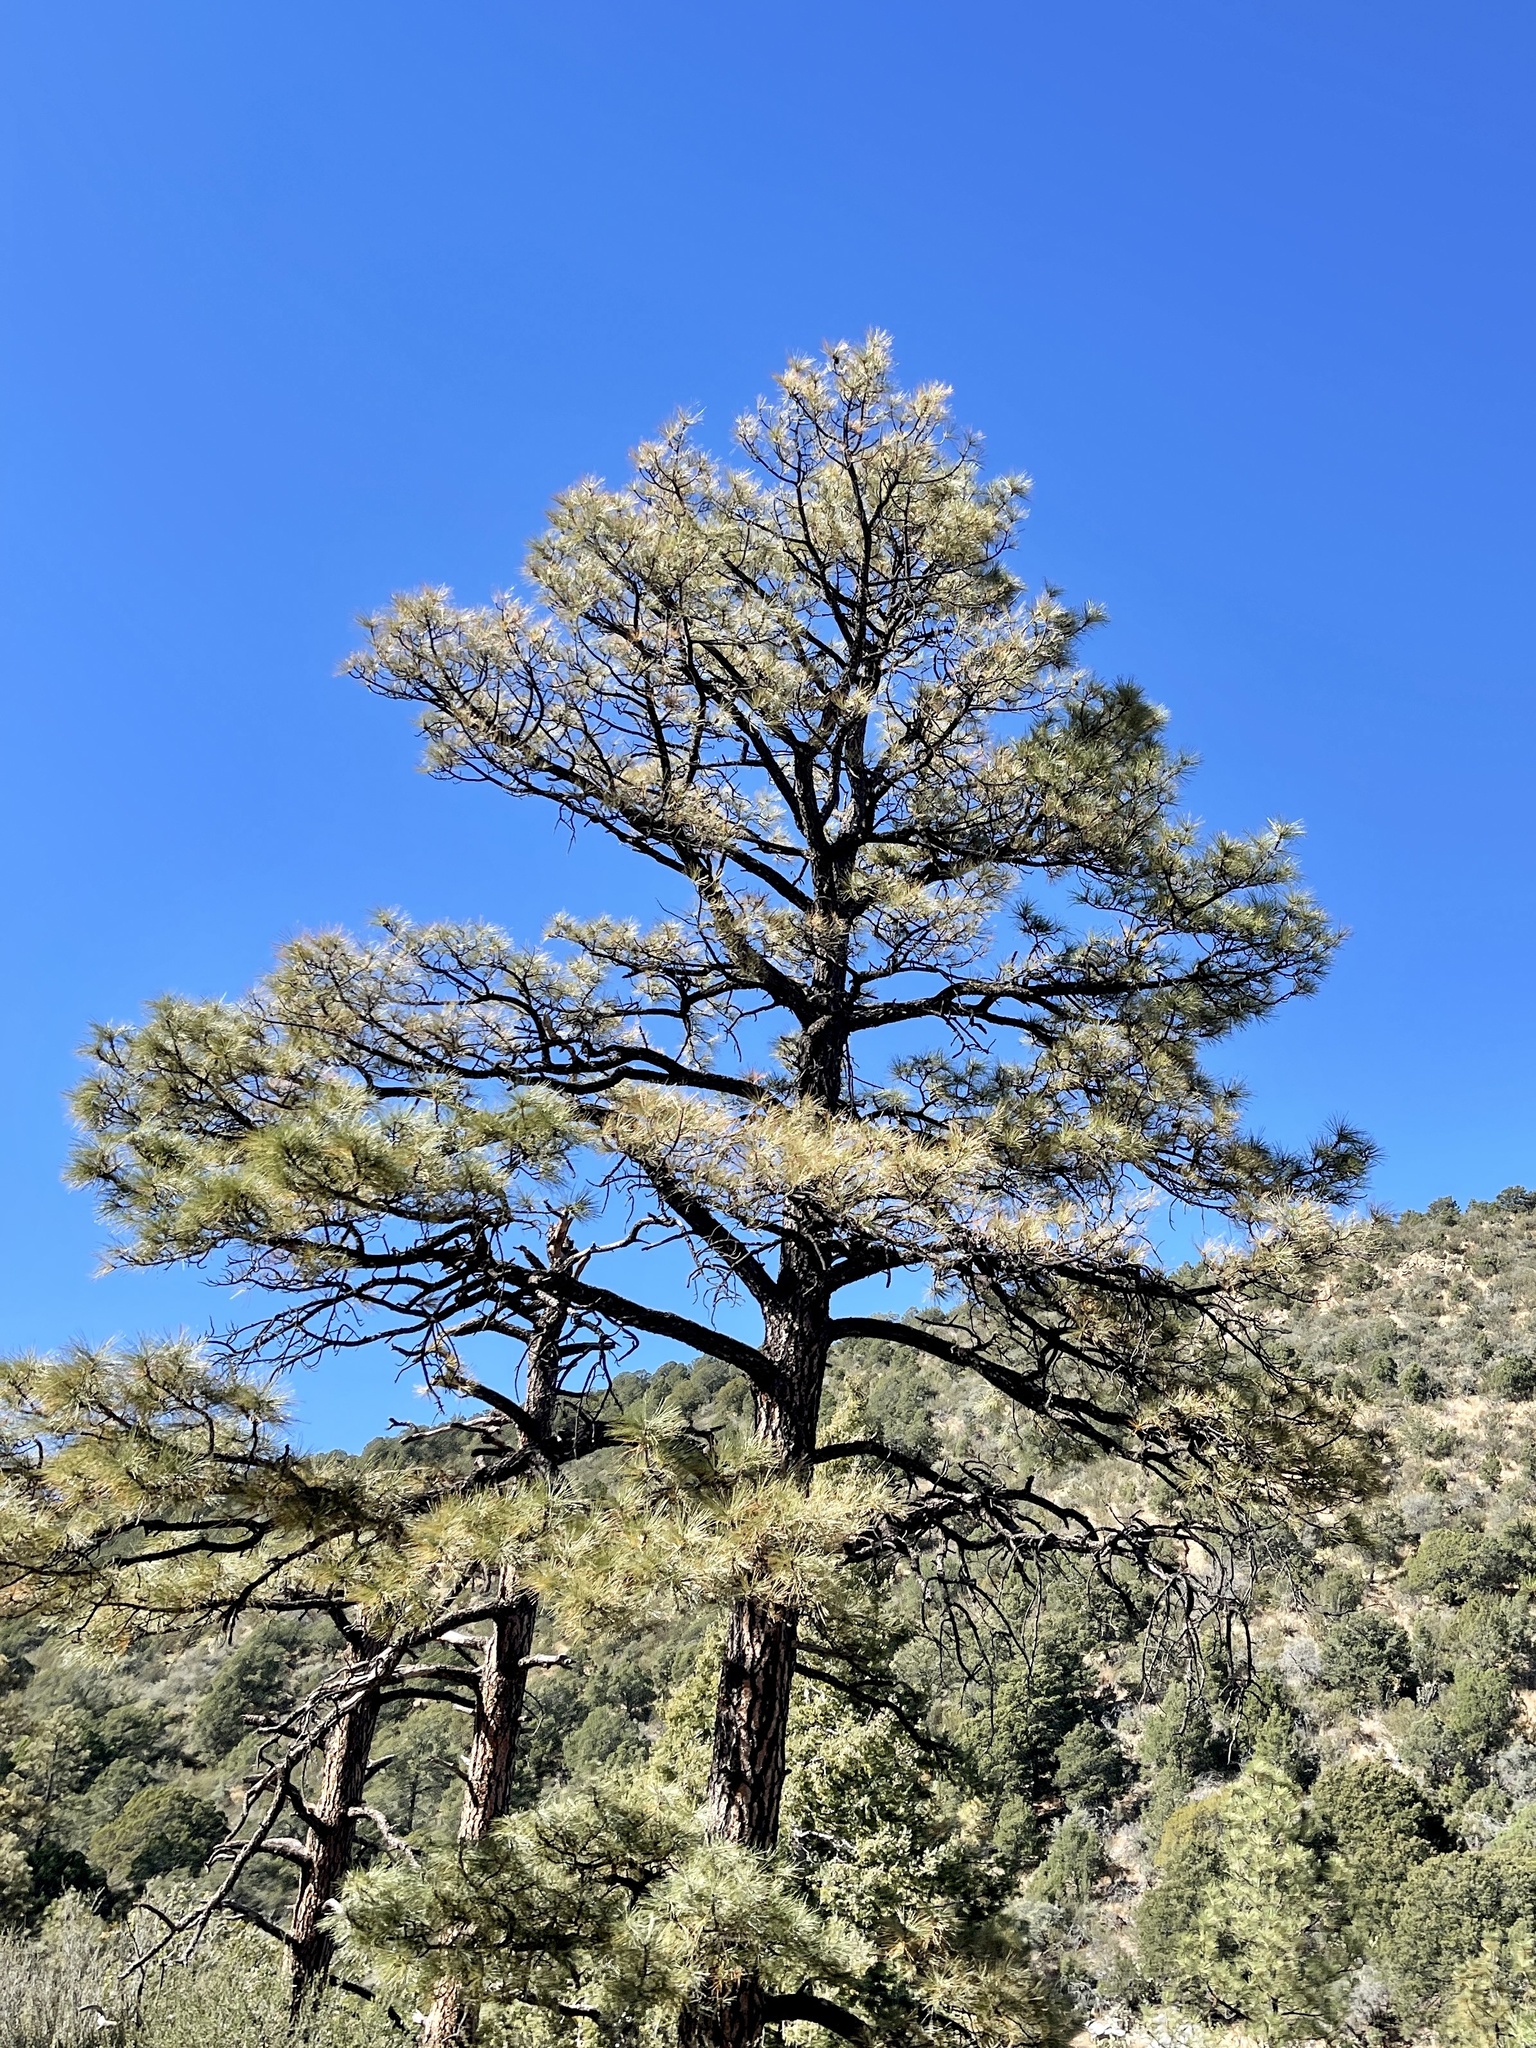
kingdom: Plantae
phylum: Tracheophyta
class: Pinopsida
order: Pinales
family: Pinaceae
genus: Pinus
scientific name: Pinus ponderosa
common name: Western yellow-pine
